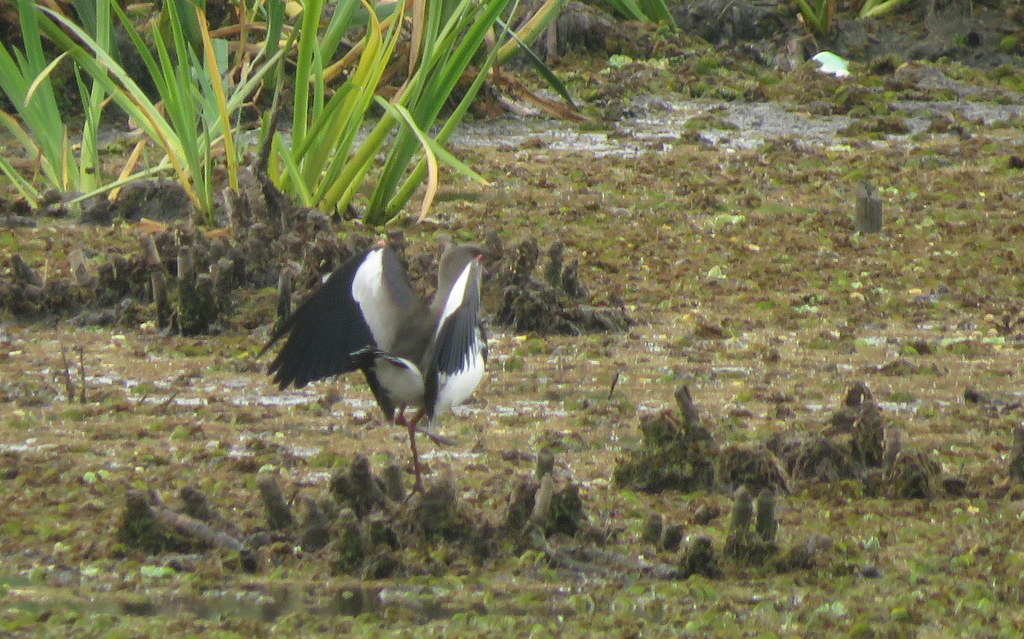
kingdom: Animalia
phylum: Chordata
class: Aves
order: Charadriiformes
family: Charadriidae
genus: Vanellus
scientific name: Vanellus chilensis
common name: Southern lapwing
